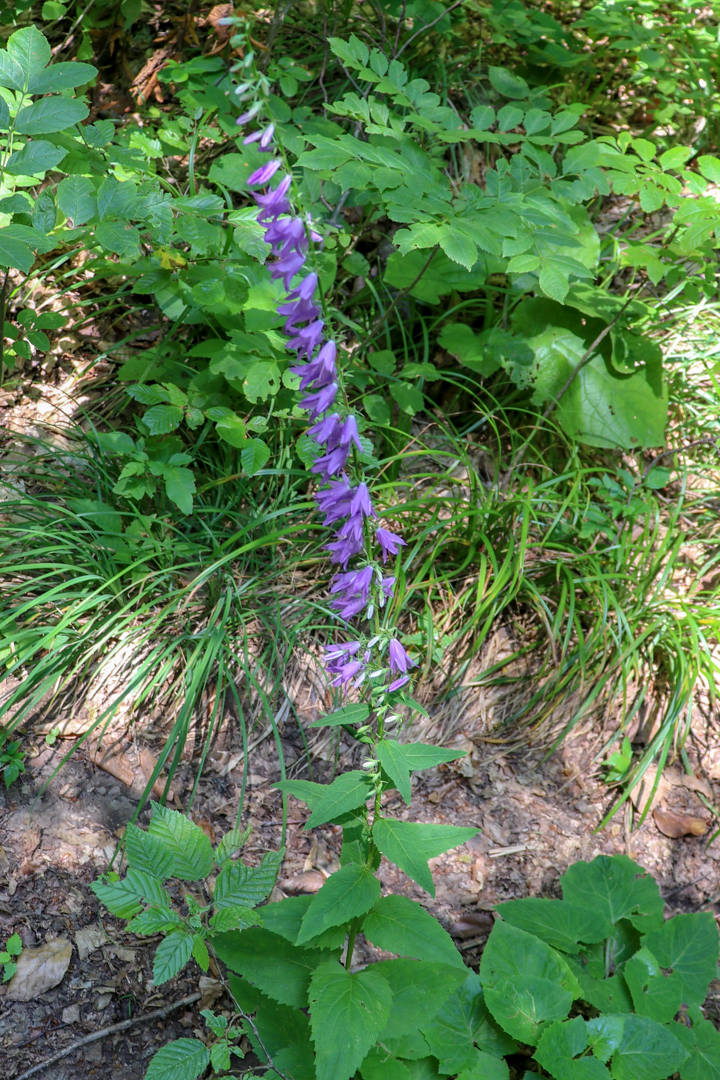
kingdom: Plantae
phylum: Tracheophyta
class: Magnoliopsida
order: Asterales
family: Campanulaceae
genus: Campanula
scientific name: Campanula rapunculoides
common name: Creeping bellflower
